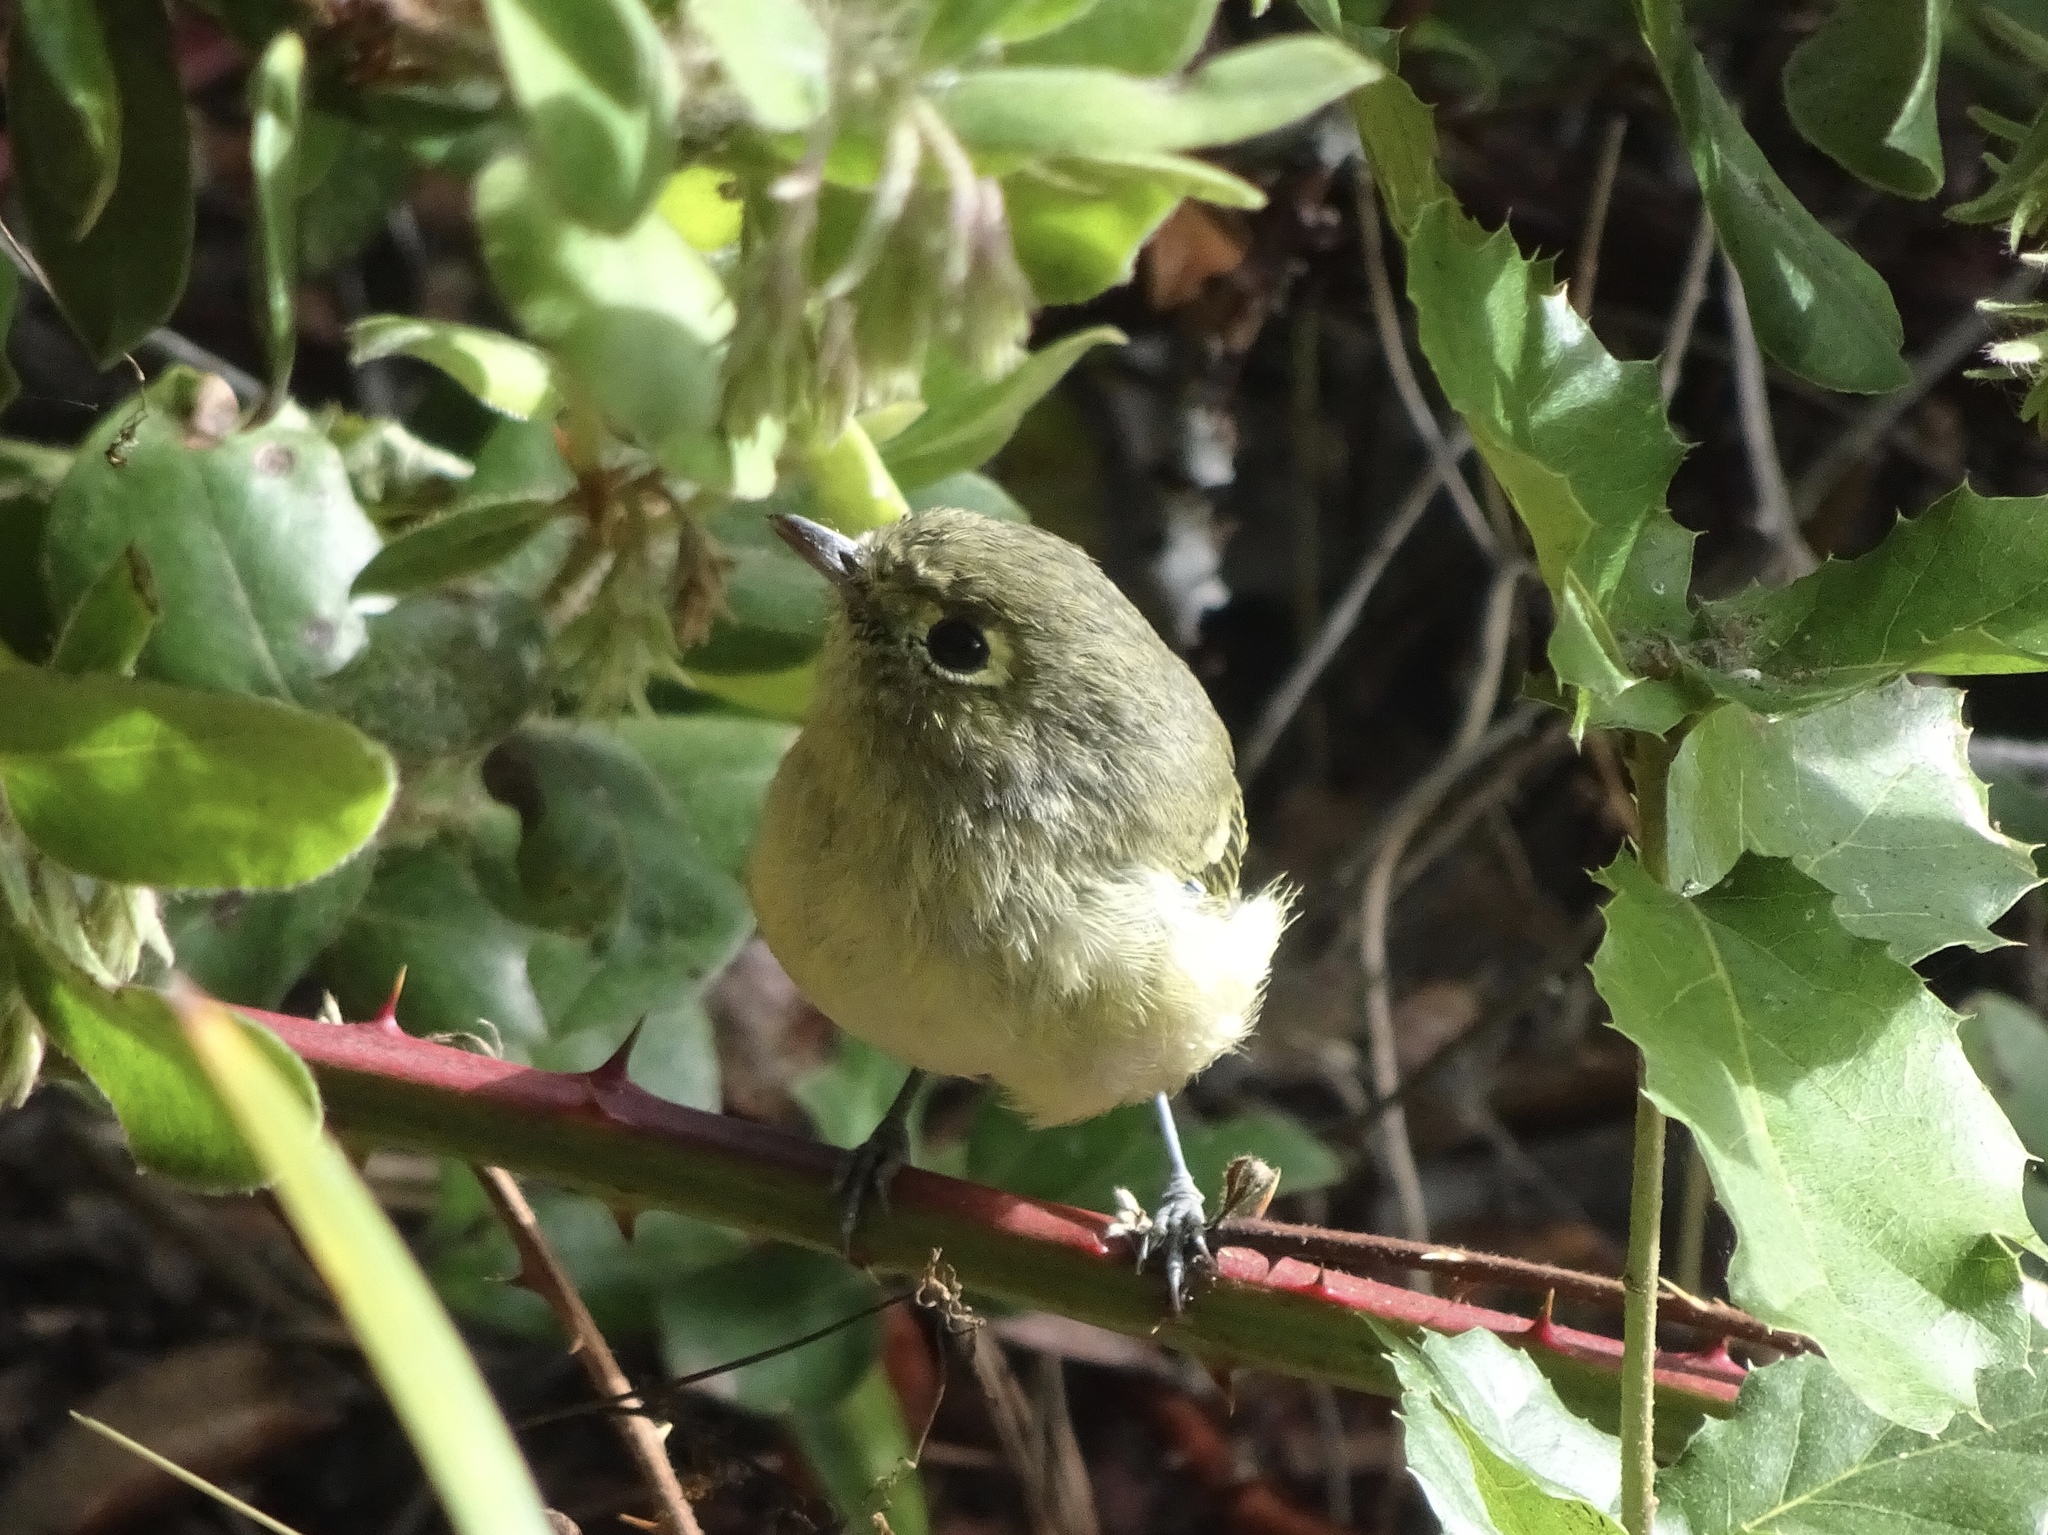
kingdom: Animalia
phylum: Chordata
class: Aves
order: Passeriformes
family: Vireonidae
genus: Vireo
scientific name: Vireo huttoni
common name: Hutton's vireo
